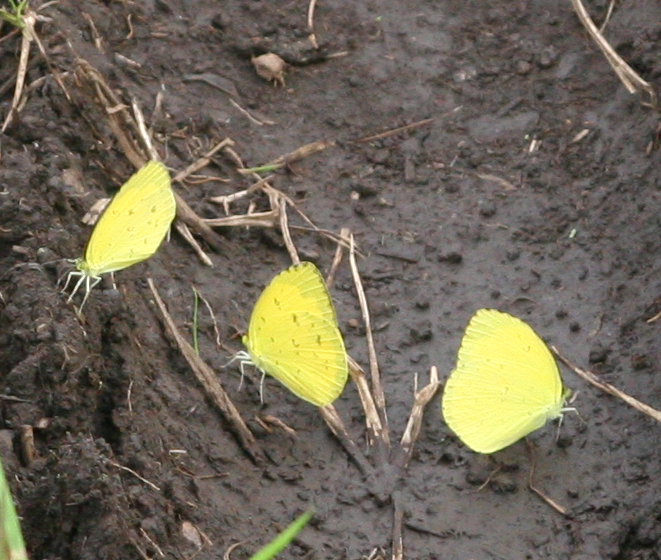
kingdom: Animalia
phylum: Arthropoda
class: Insecta
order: Lepidoptera
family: Pieridae
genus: Eurema
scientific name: Eurema hecabe
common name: Pale grass yellow
